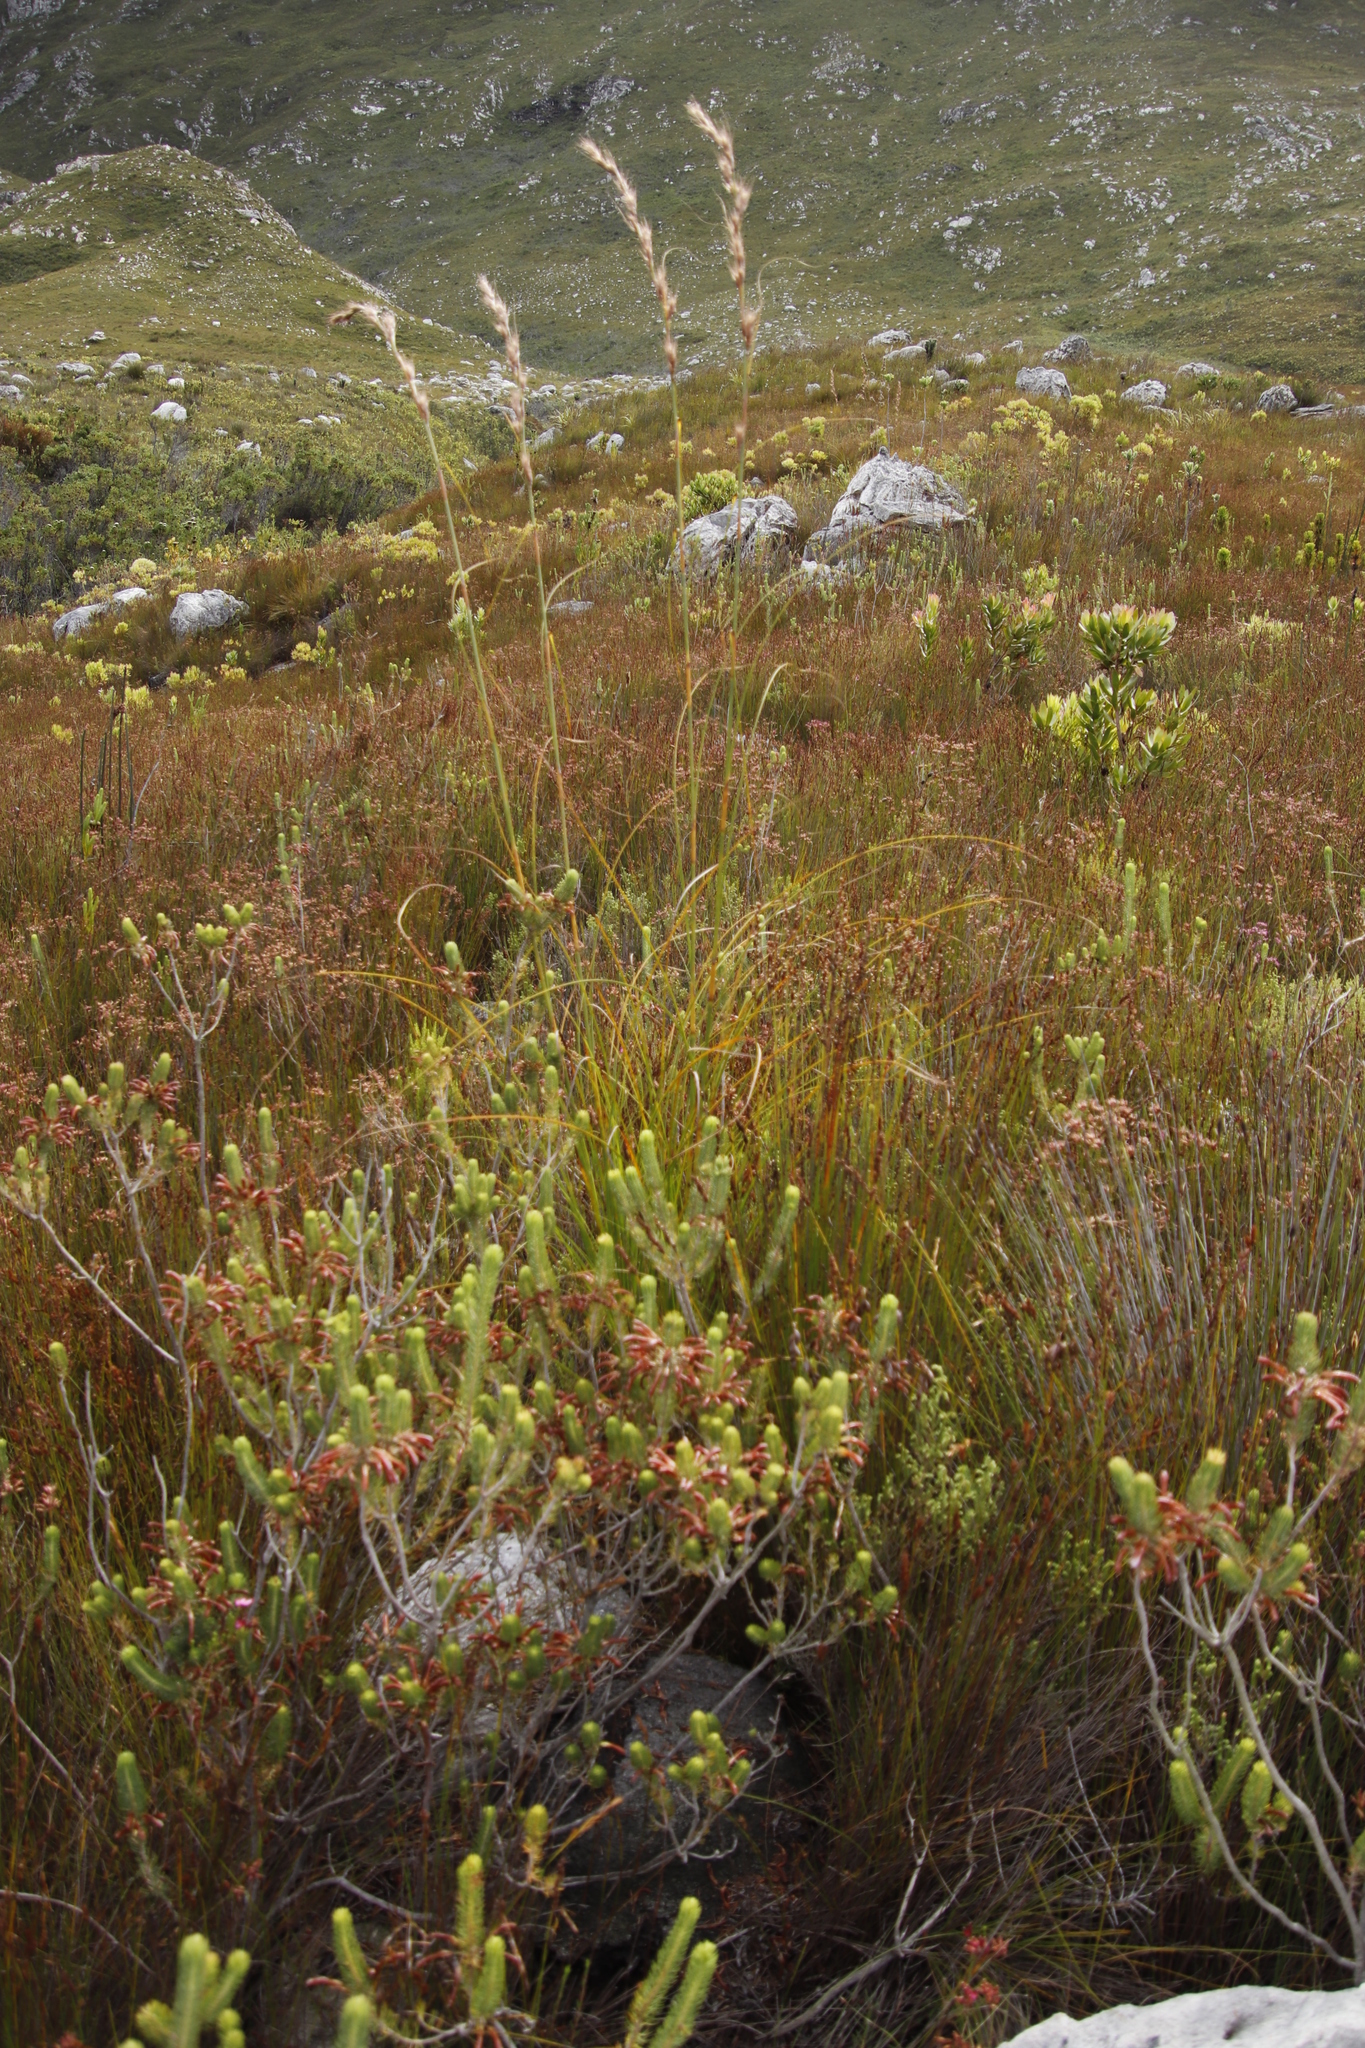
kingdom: Plantae
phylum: Tracheophyta
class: Liliopsida
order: Poales
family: Cyperaceae
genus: Tetraria
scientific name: Tetraria bromoides
